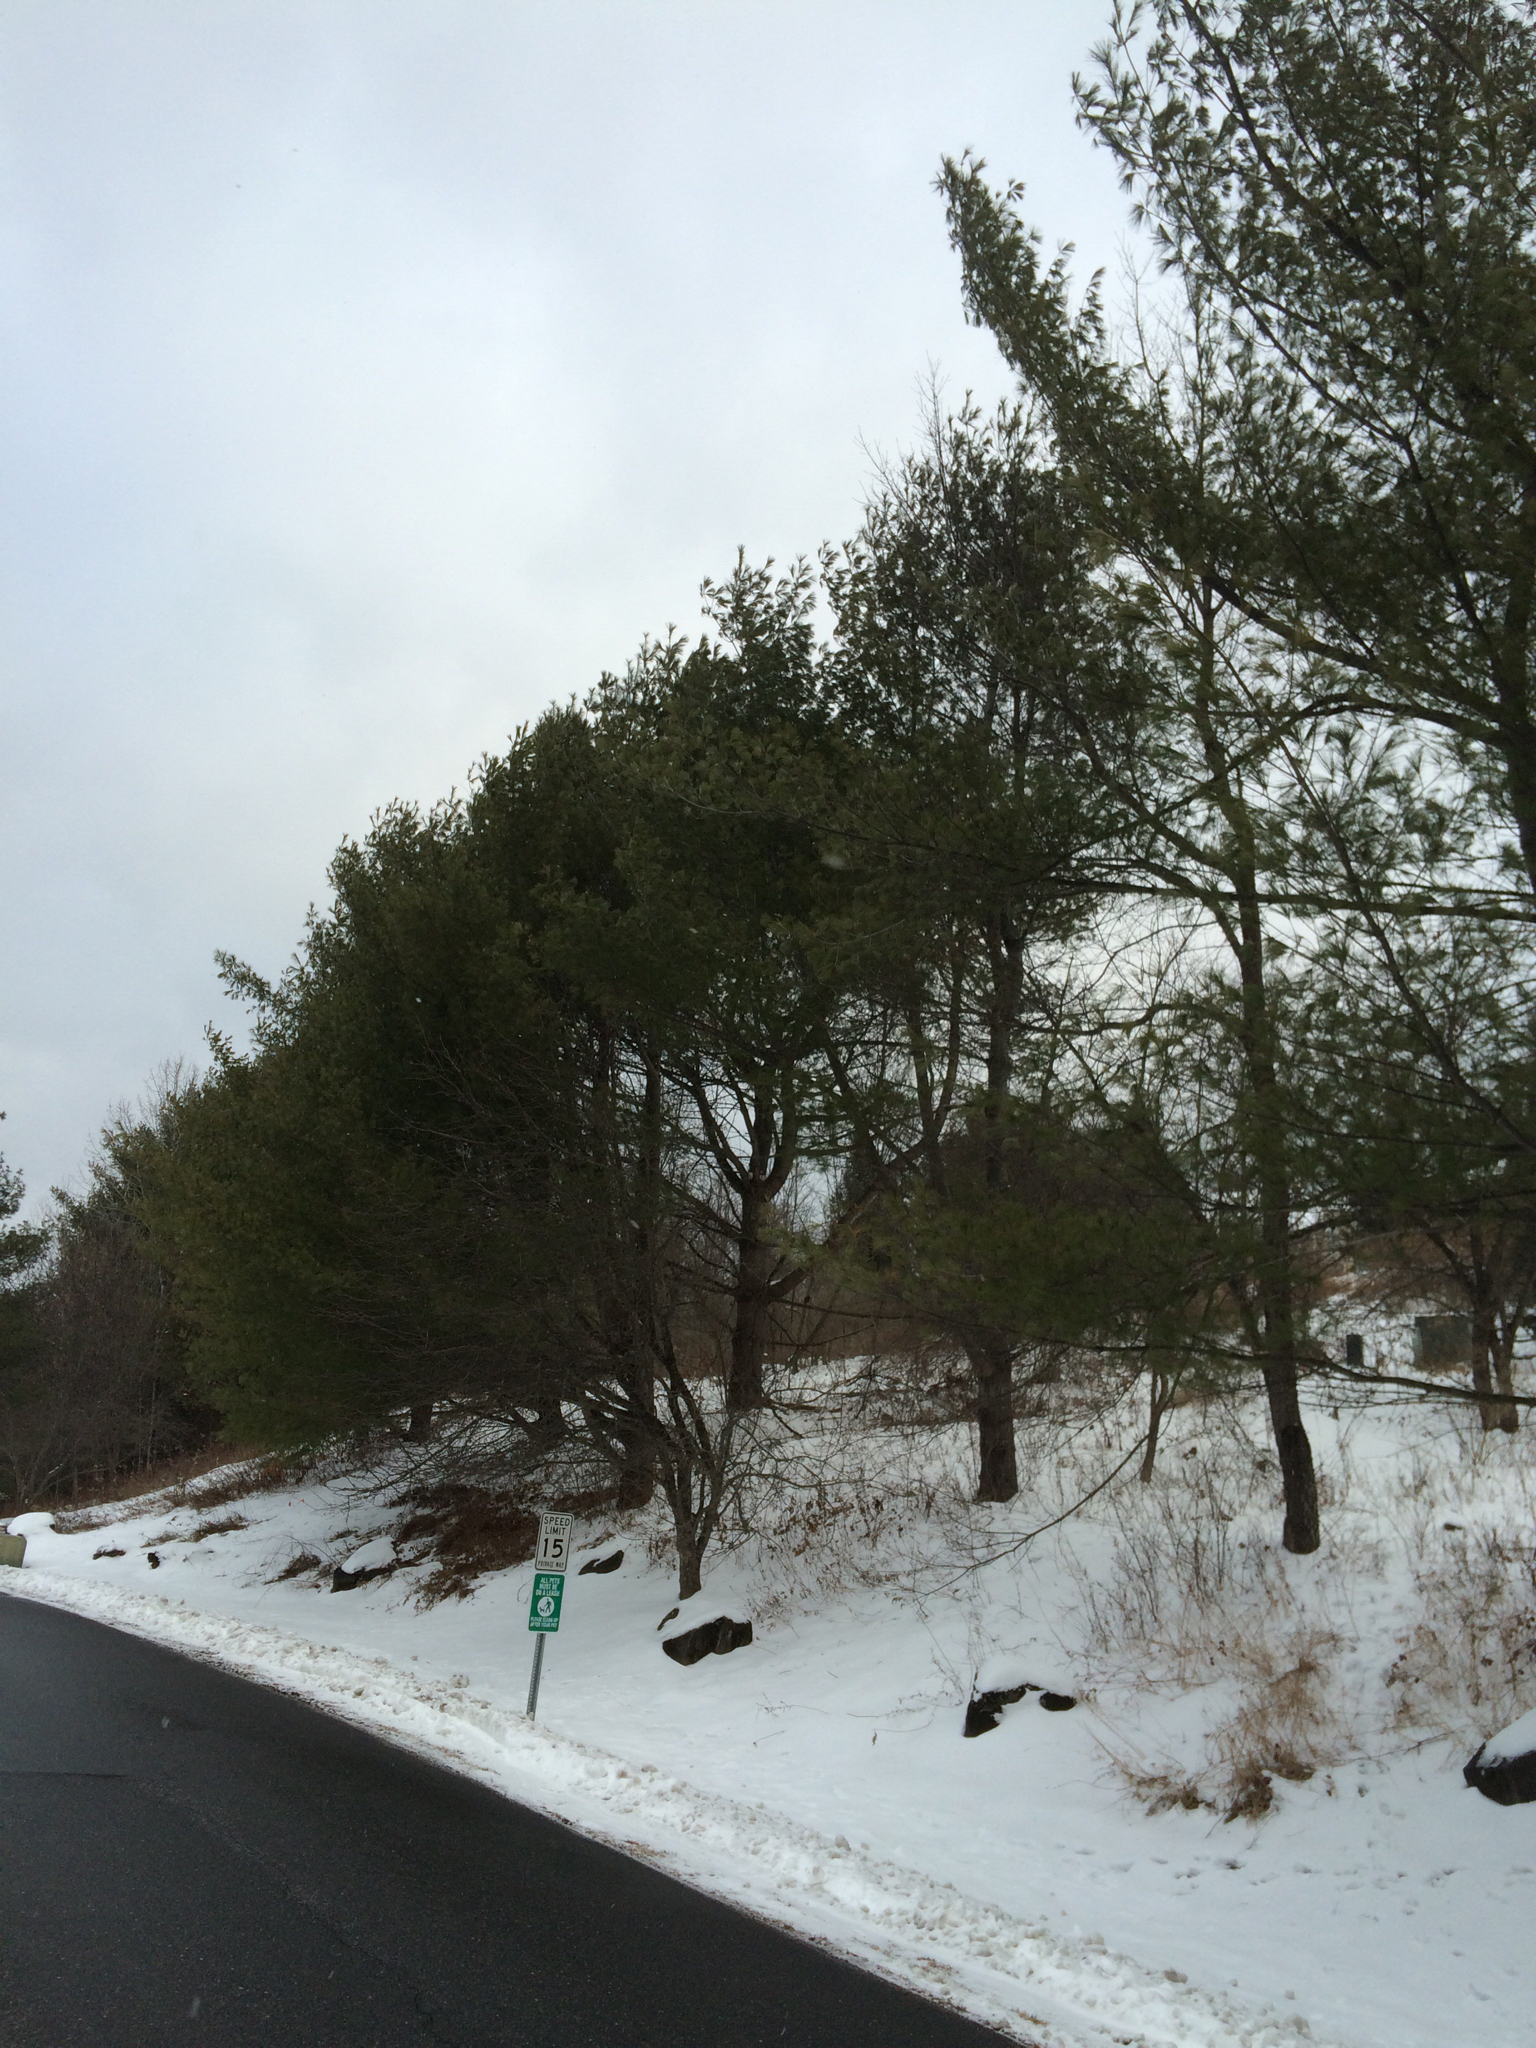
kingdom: Plantae
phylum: Tracheophyta
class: Pinopsida
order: Pinales
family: Pinaceae
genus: Pinus
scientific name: Pinus strobus
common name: Weymouth pine
